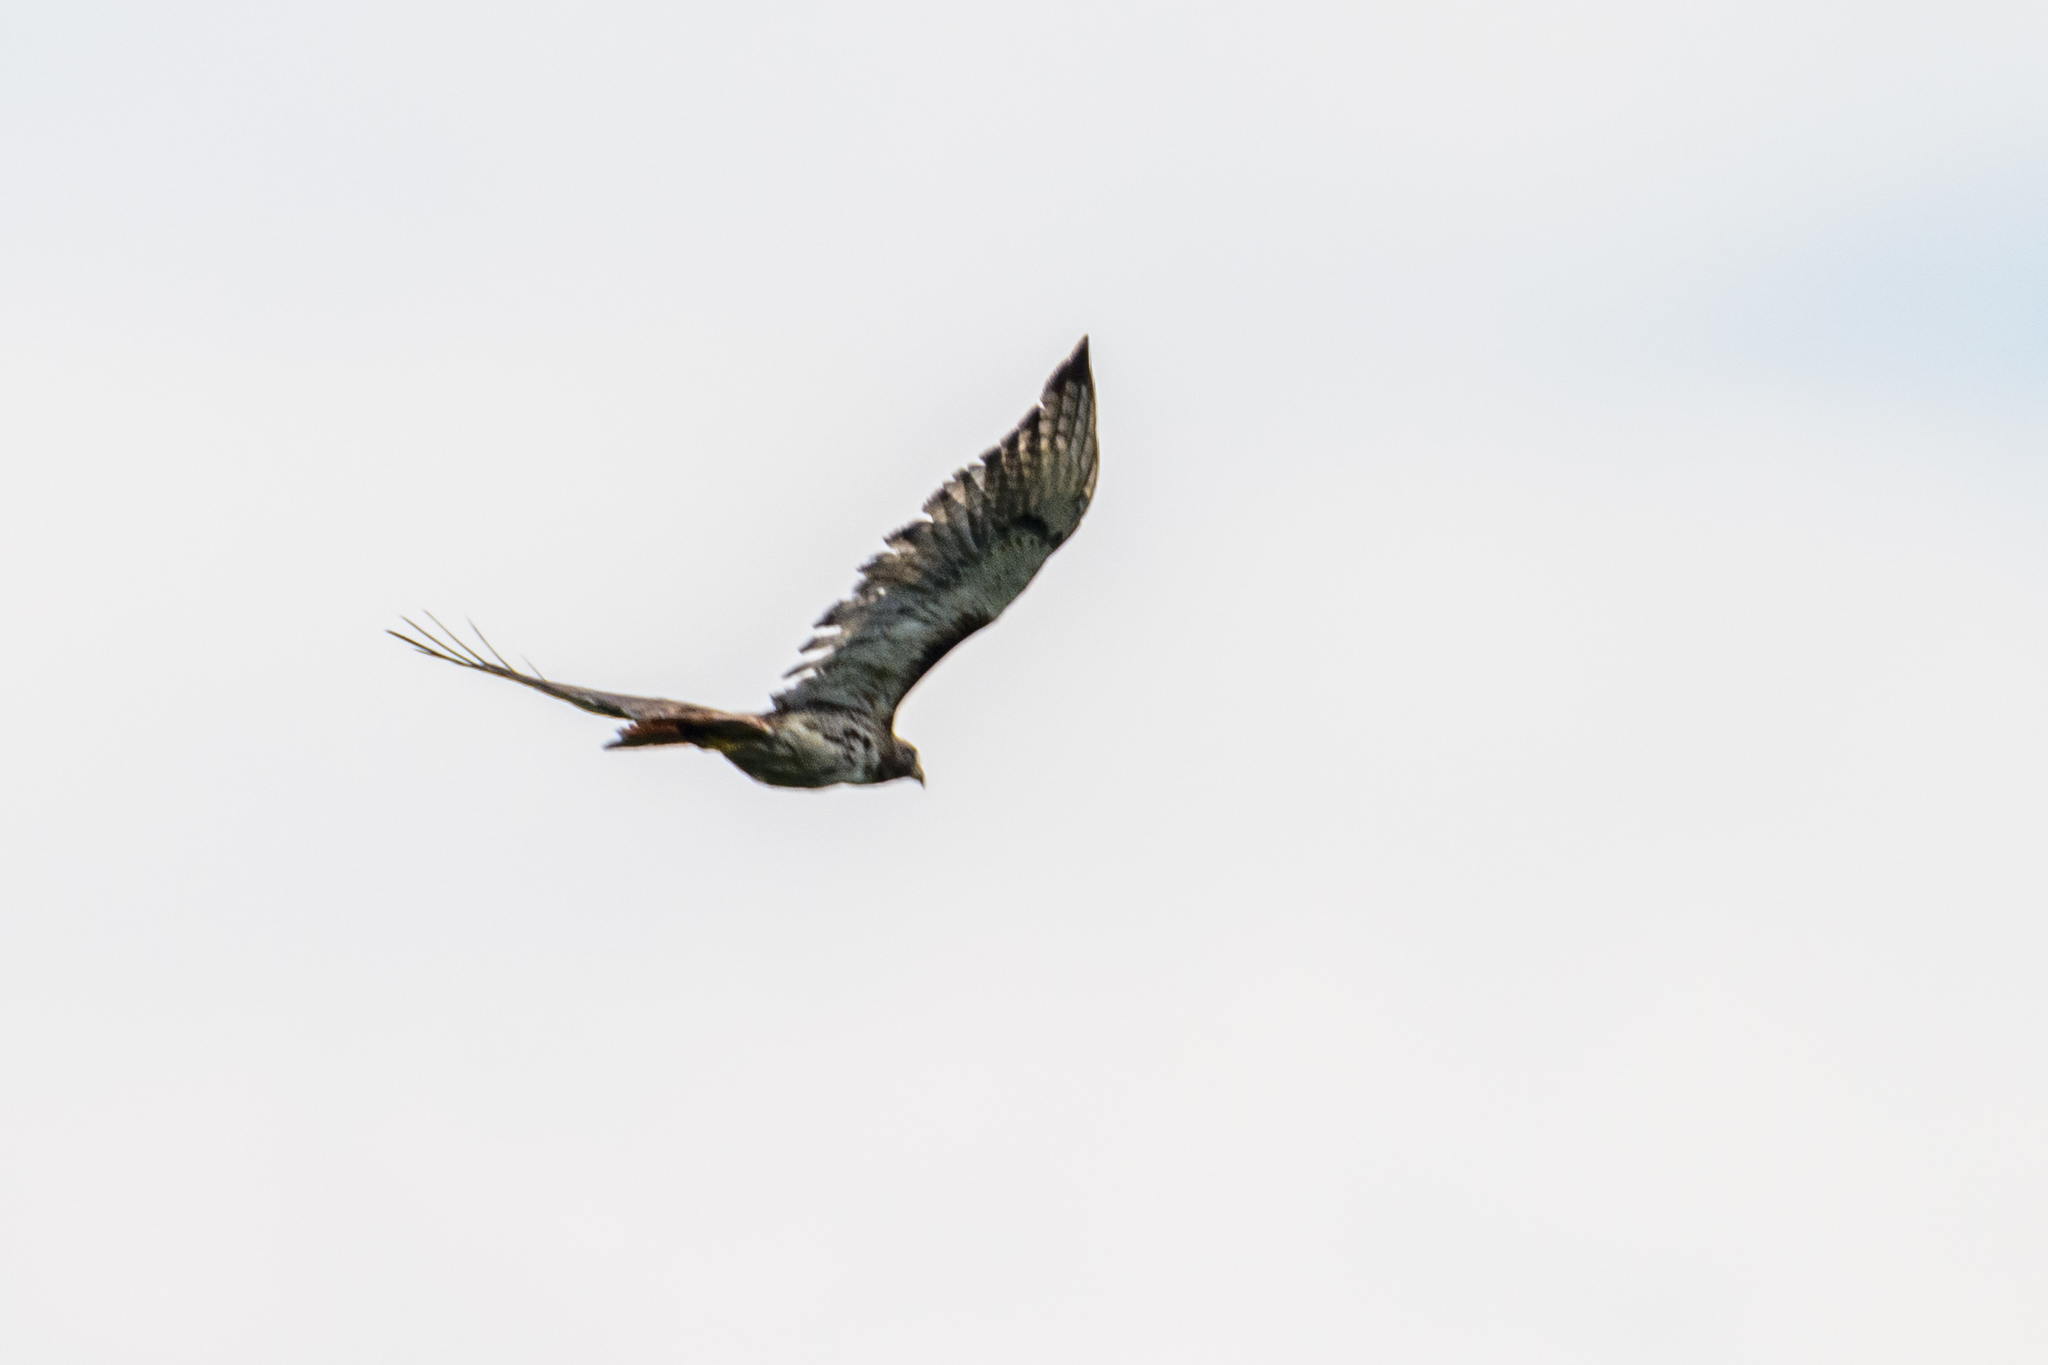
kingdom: Animalia
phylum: Chordata
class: Aves
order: Accipitriformes
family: Accipitridae
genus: Buteo
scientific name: Buteo jamaicensis
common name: Red-tailed hawk
